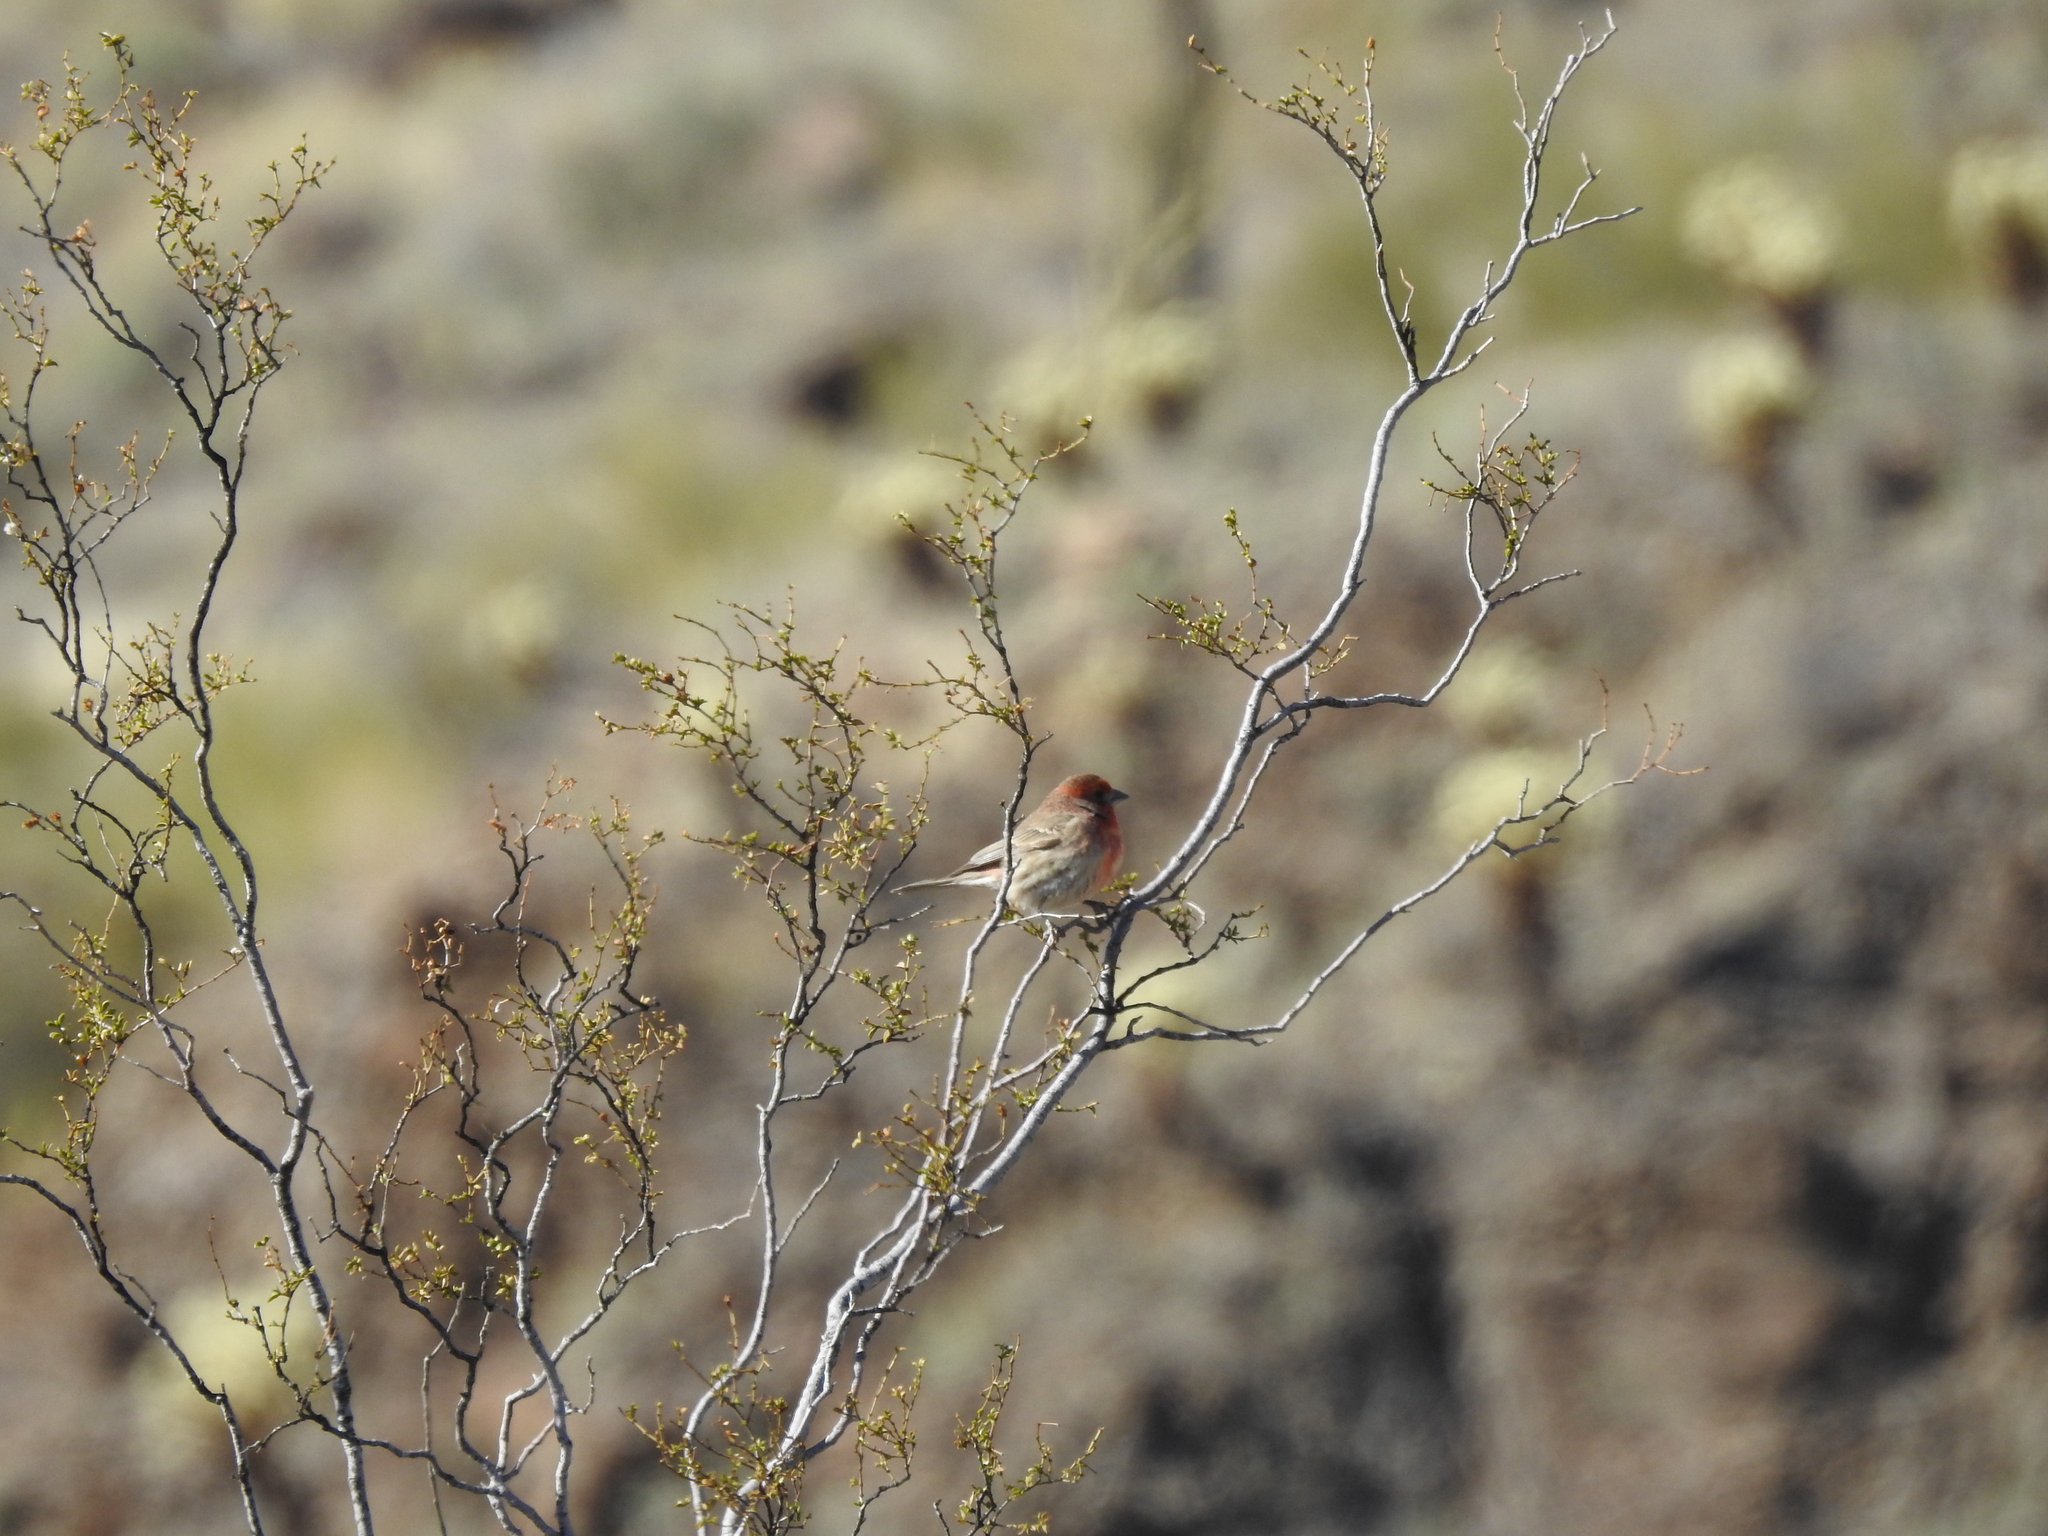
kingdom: Animalia
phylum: Chordata
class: Aves
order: Passeriformes
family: Fringillidae
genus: Haemorhous
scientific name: Haemorhous mexicanus
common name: House finch
